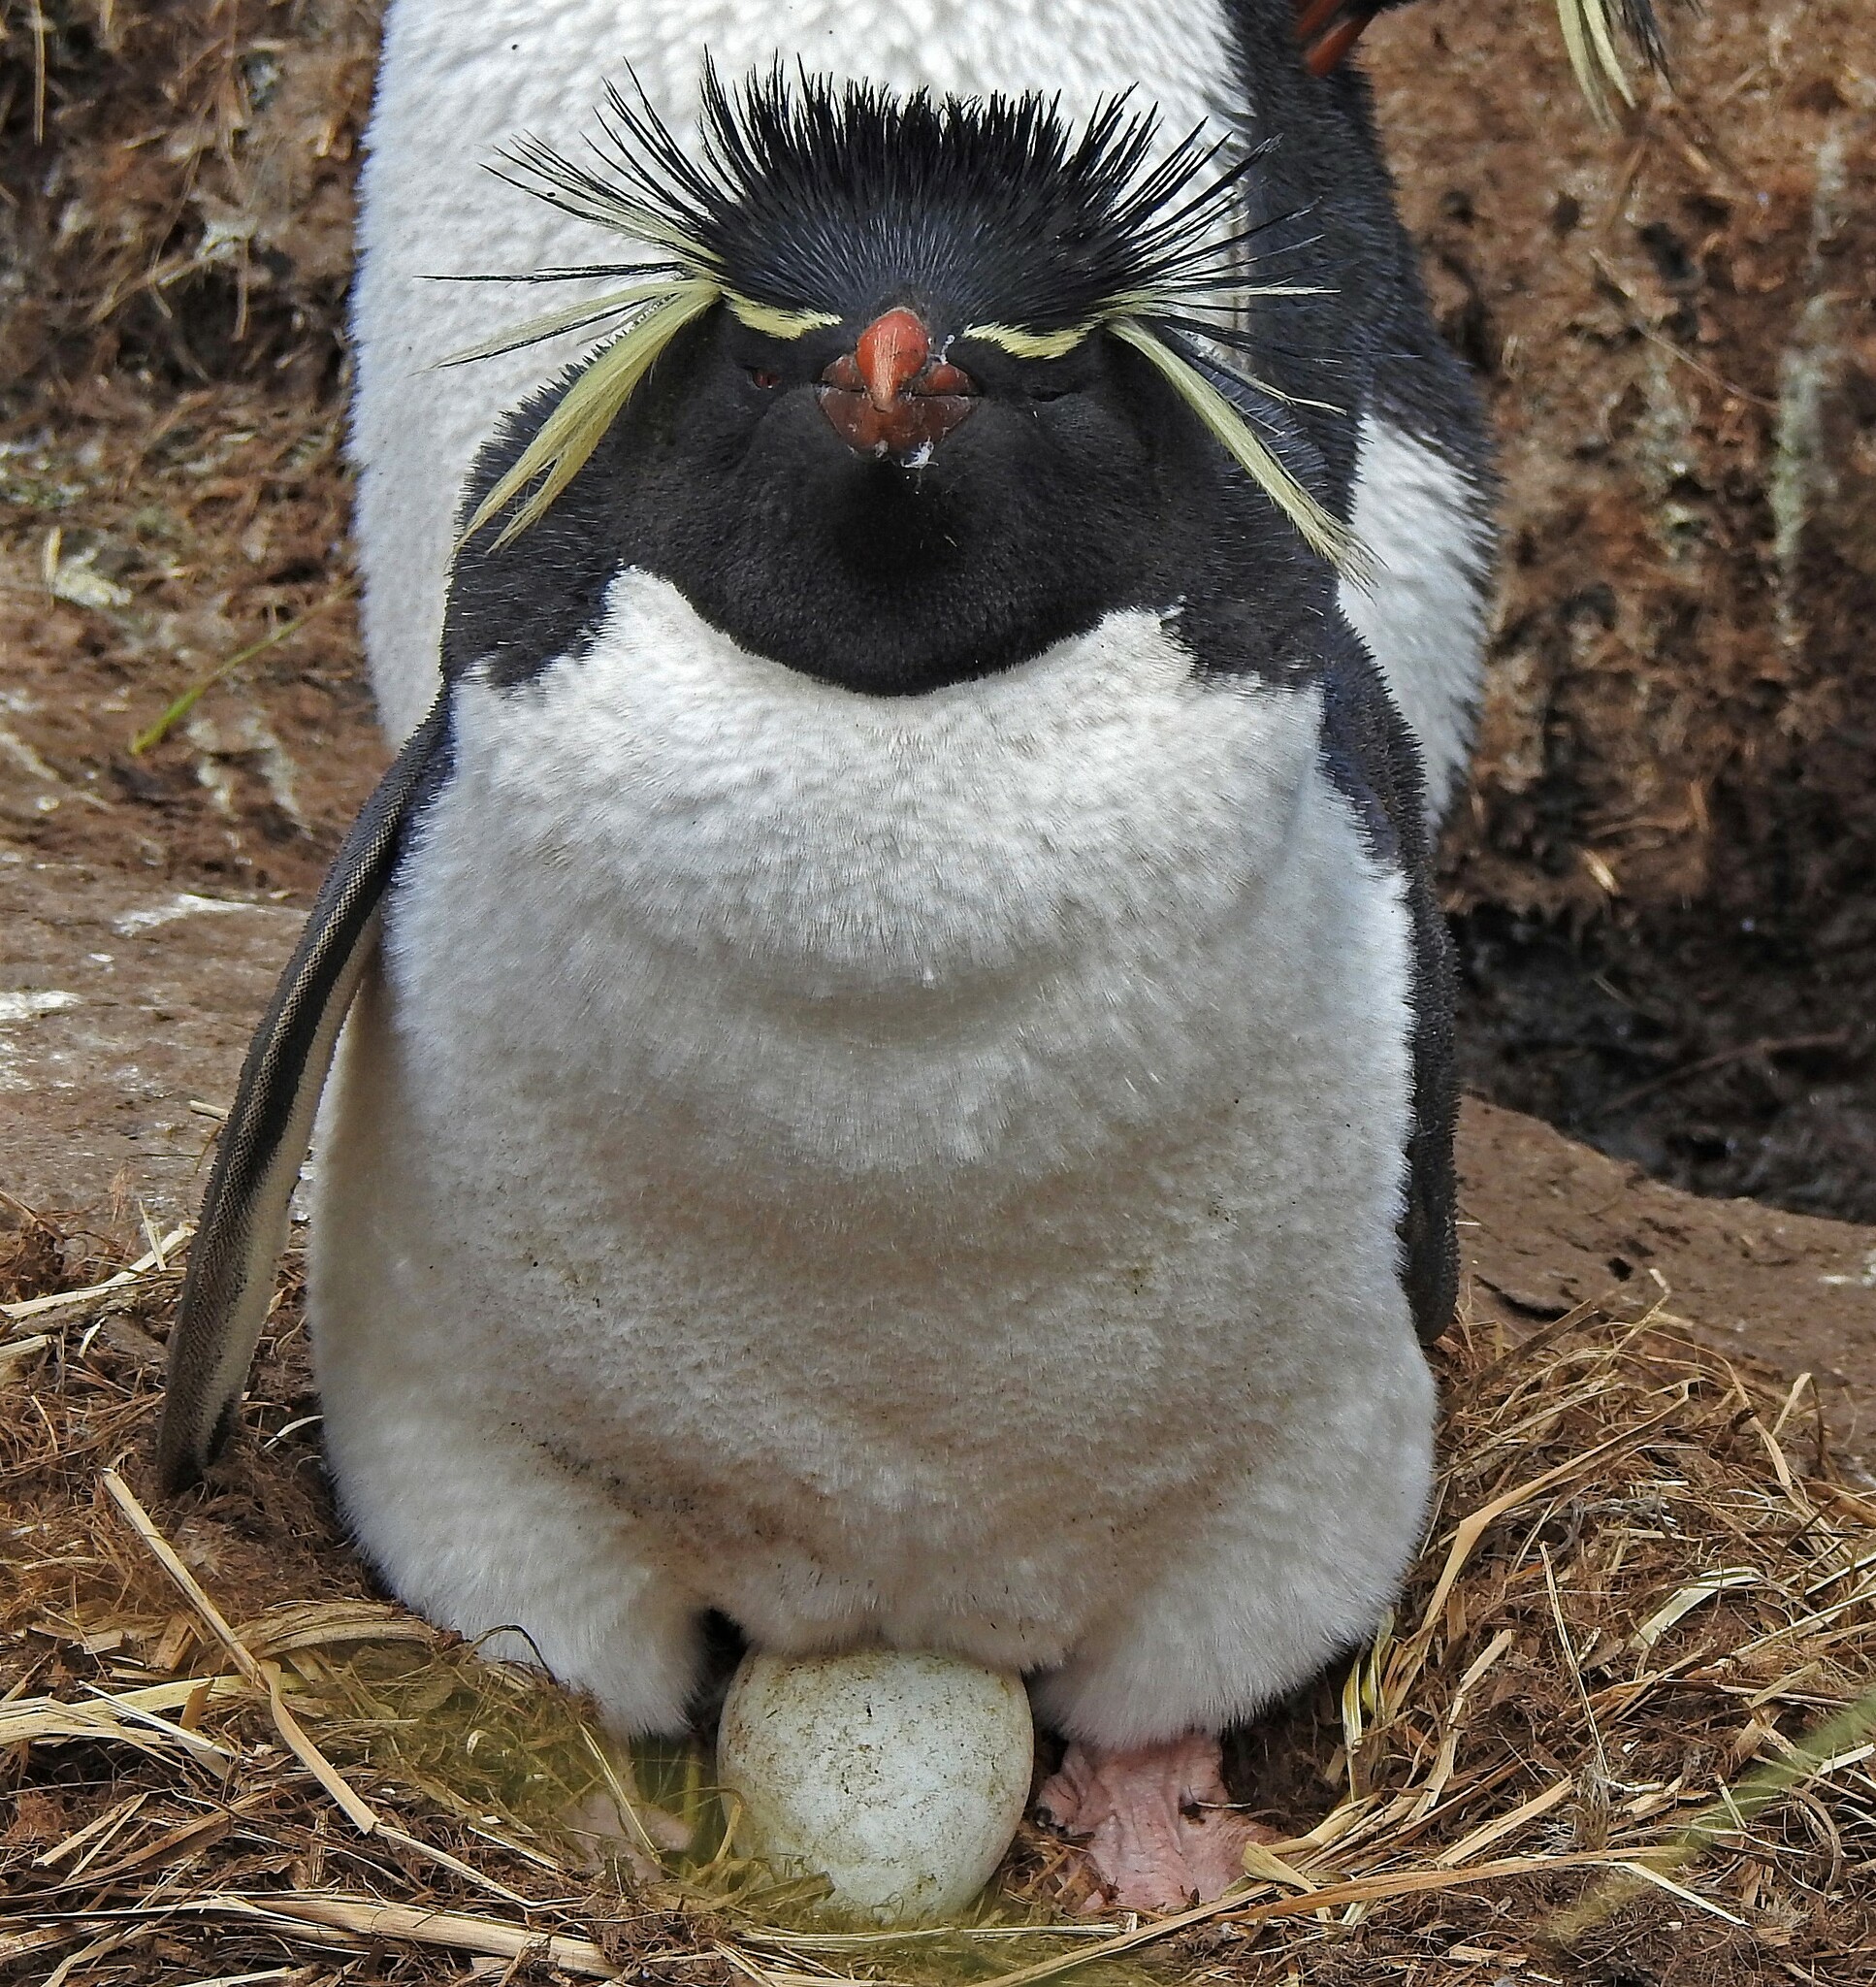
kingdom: Animalia
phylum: Chordata
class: Aves
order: Sphenisciformes
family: Spheniscidae
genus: Eudyptes
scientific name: Eudyptes chrysocome
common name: Southern rockhopper penguin
